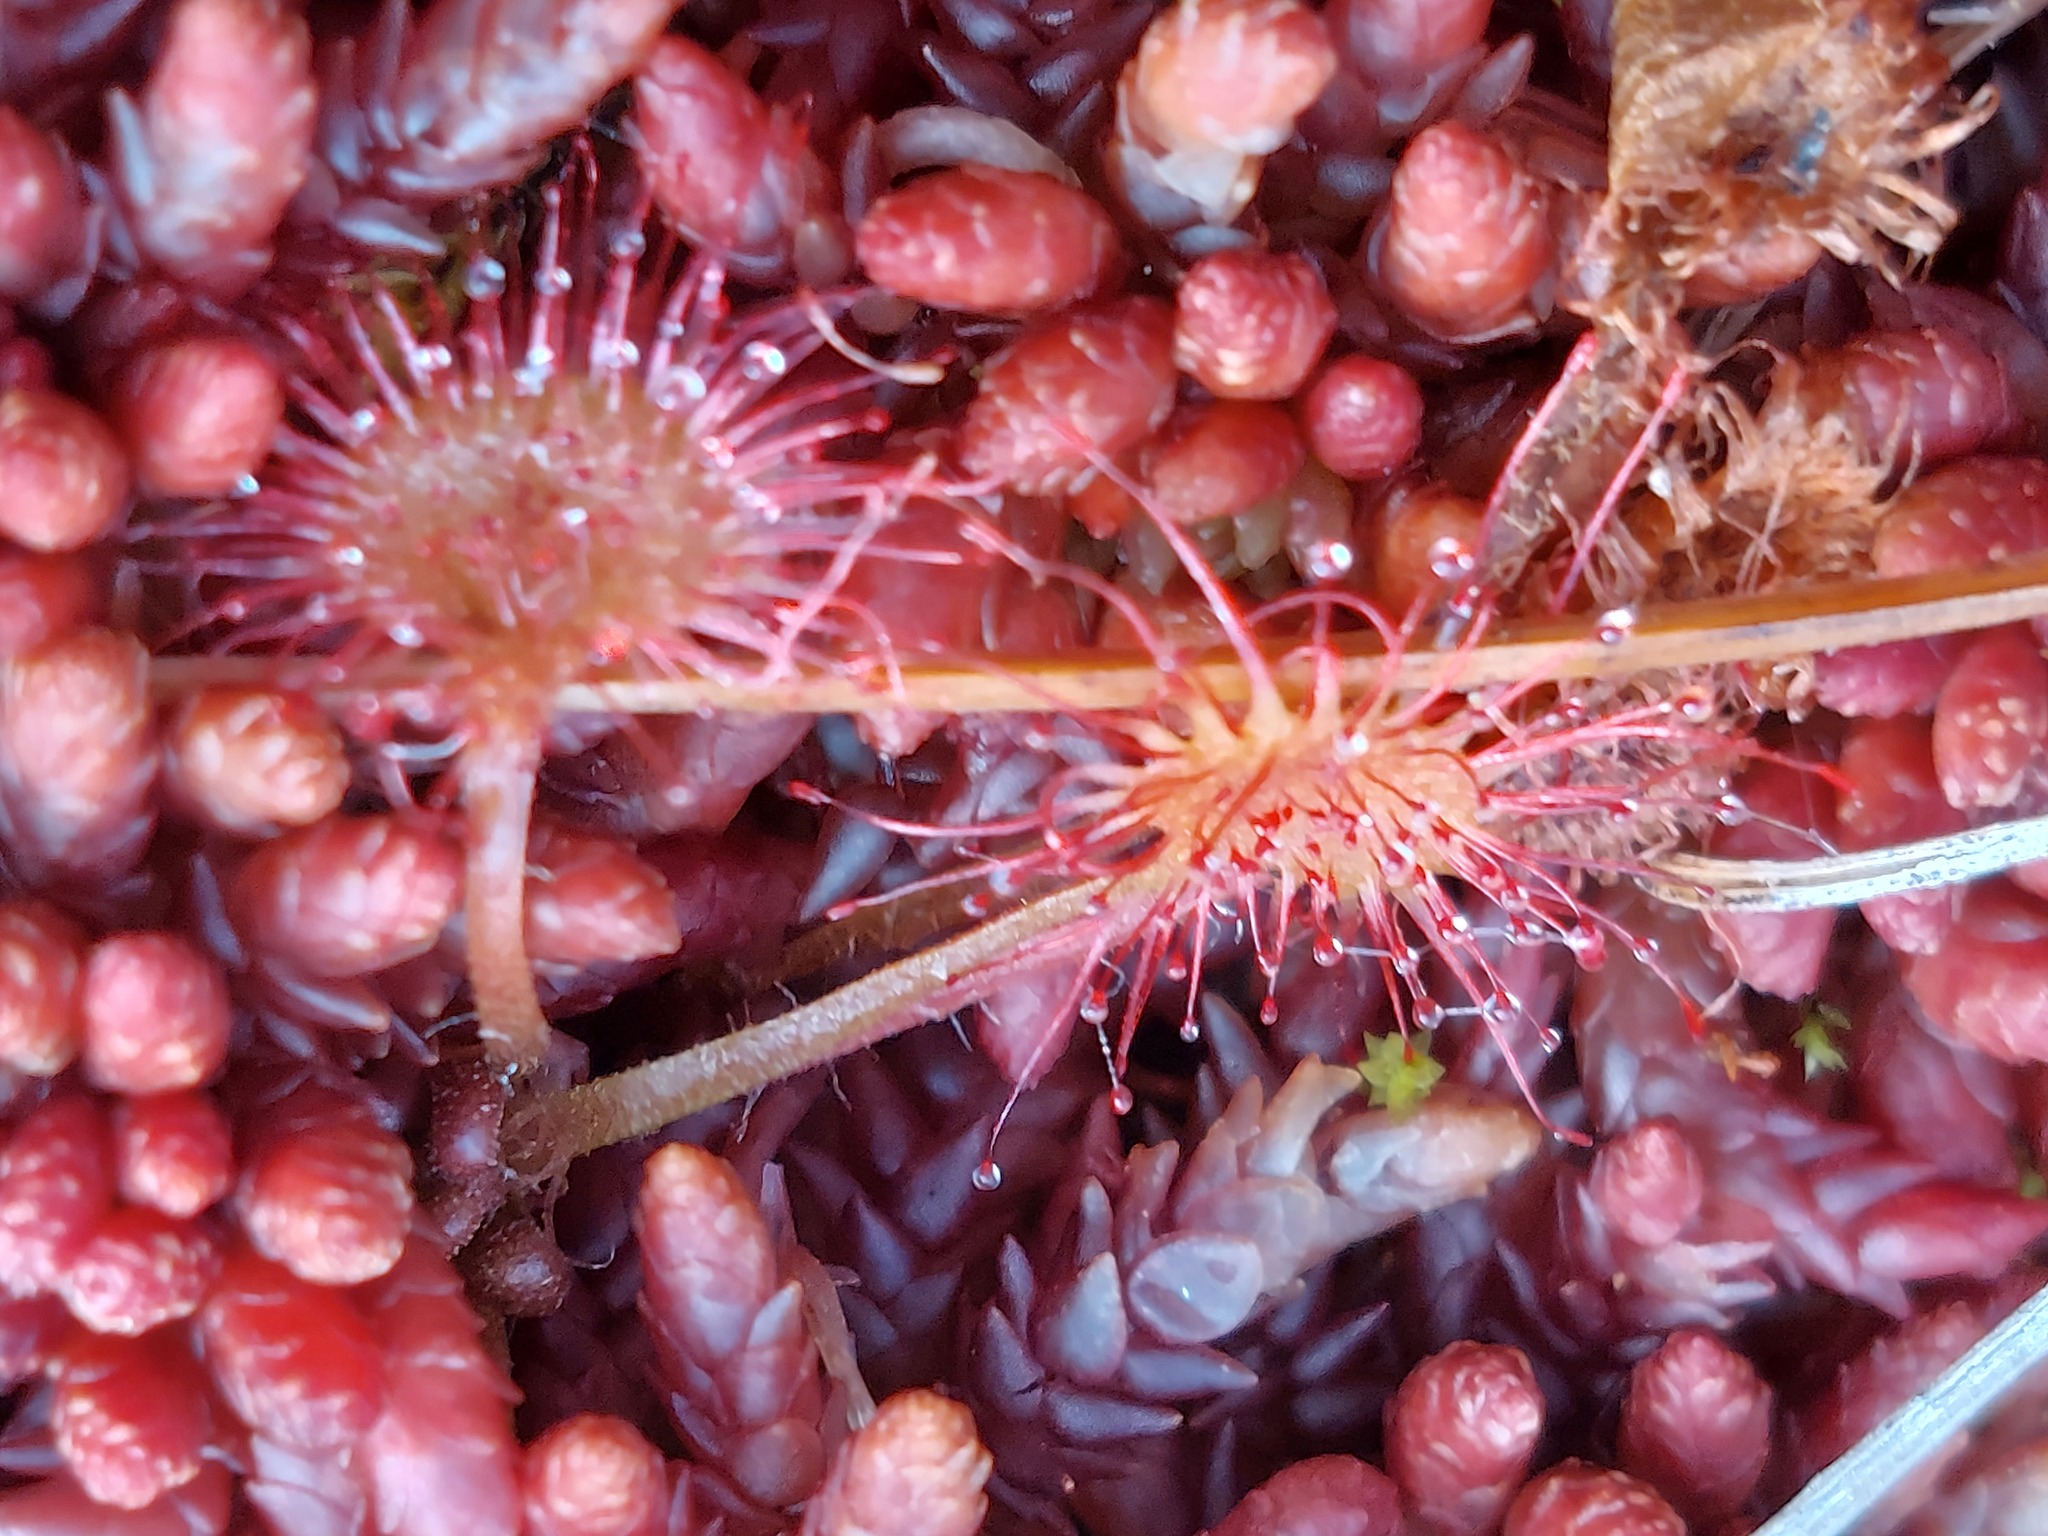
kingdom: Plantae
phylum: Tracheophyta
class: Magnoliopsida
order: Caryophyllales
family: Droseraceae
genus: Drosera
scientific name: Drosera rotundifolia
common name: Round-leaved sundew
